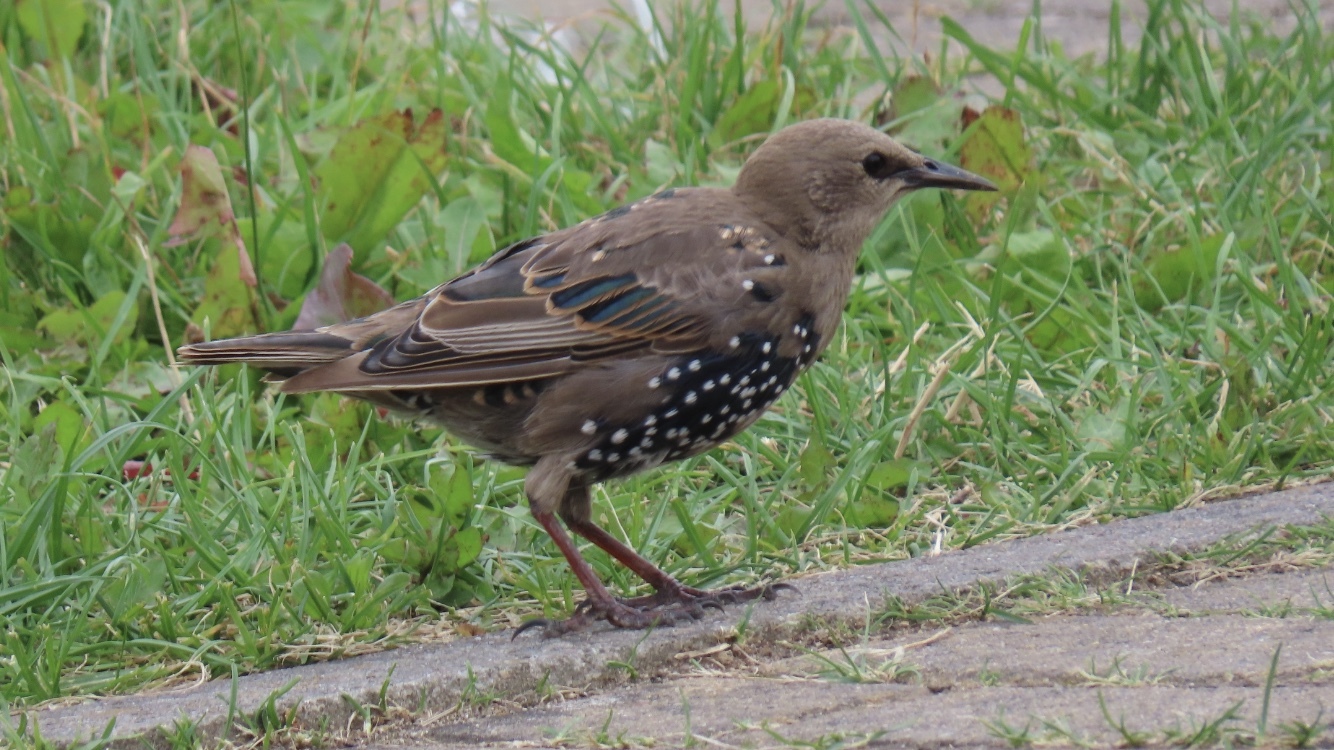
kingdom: Animalia
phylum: Chordata
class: Aves
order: Passeriformes
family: Sturnidae
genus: Sturnus
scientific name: Sturnus vulgaris
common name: Common starling
